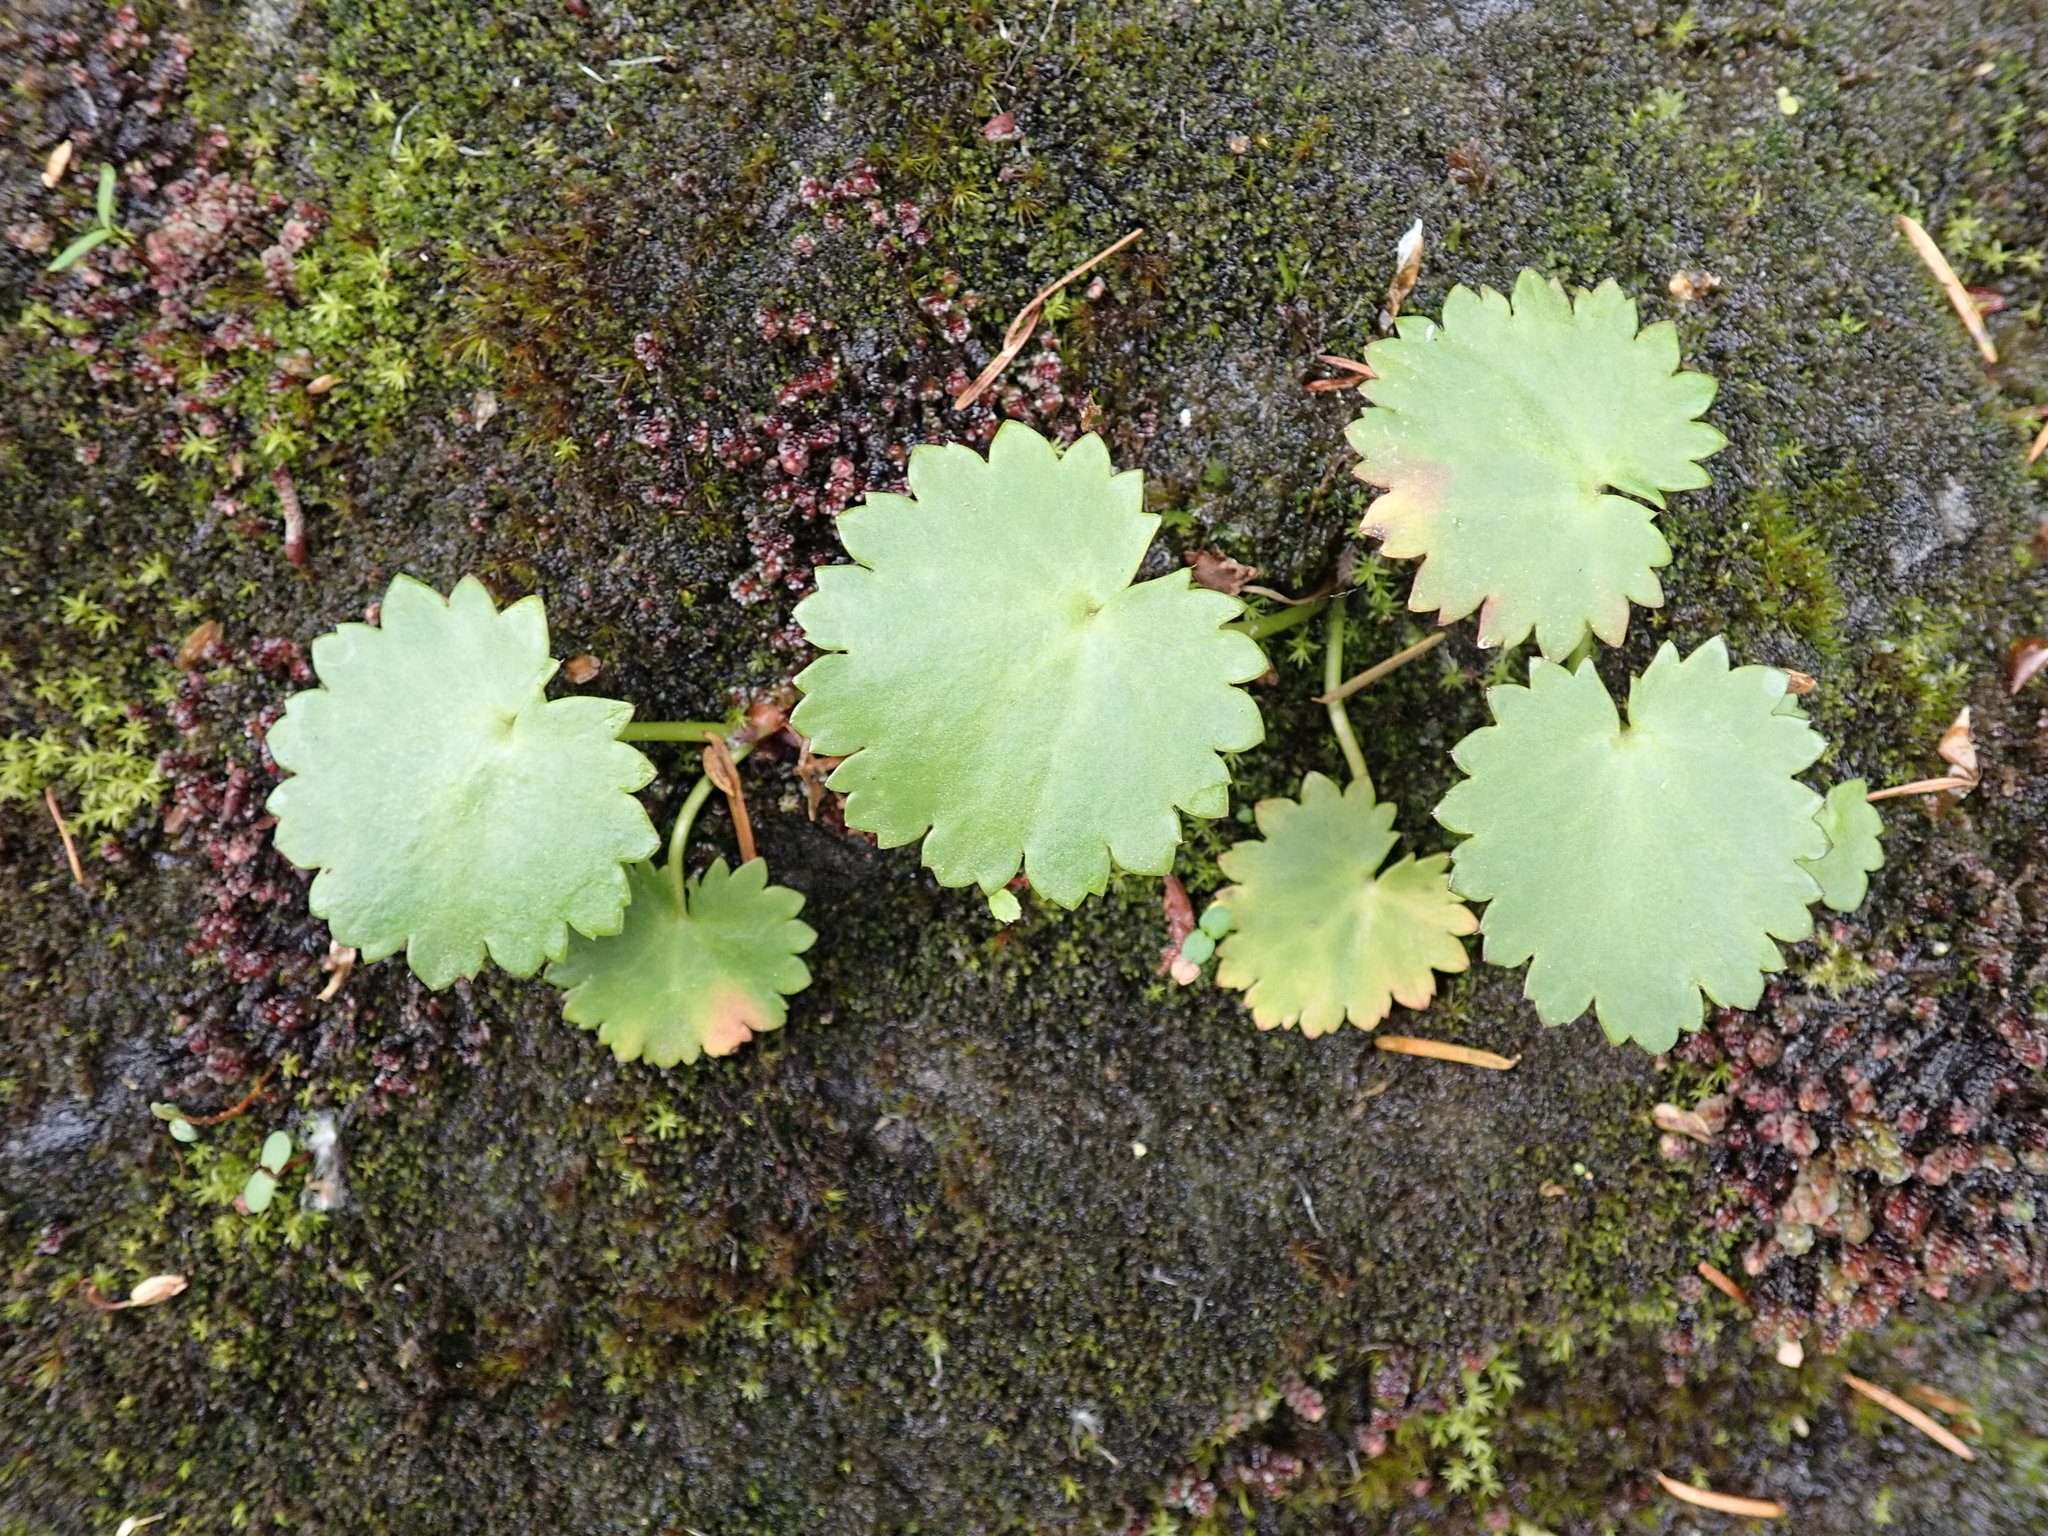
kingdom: Plantae
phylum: Tracheophyta
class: Magnoliopsida
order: Saxifragales
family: Saxifragaceae
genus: Micranthes
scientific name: Micranthes mertensiana
